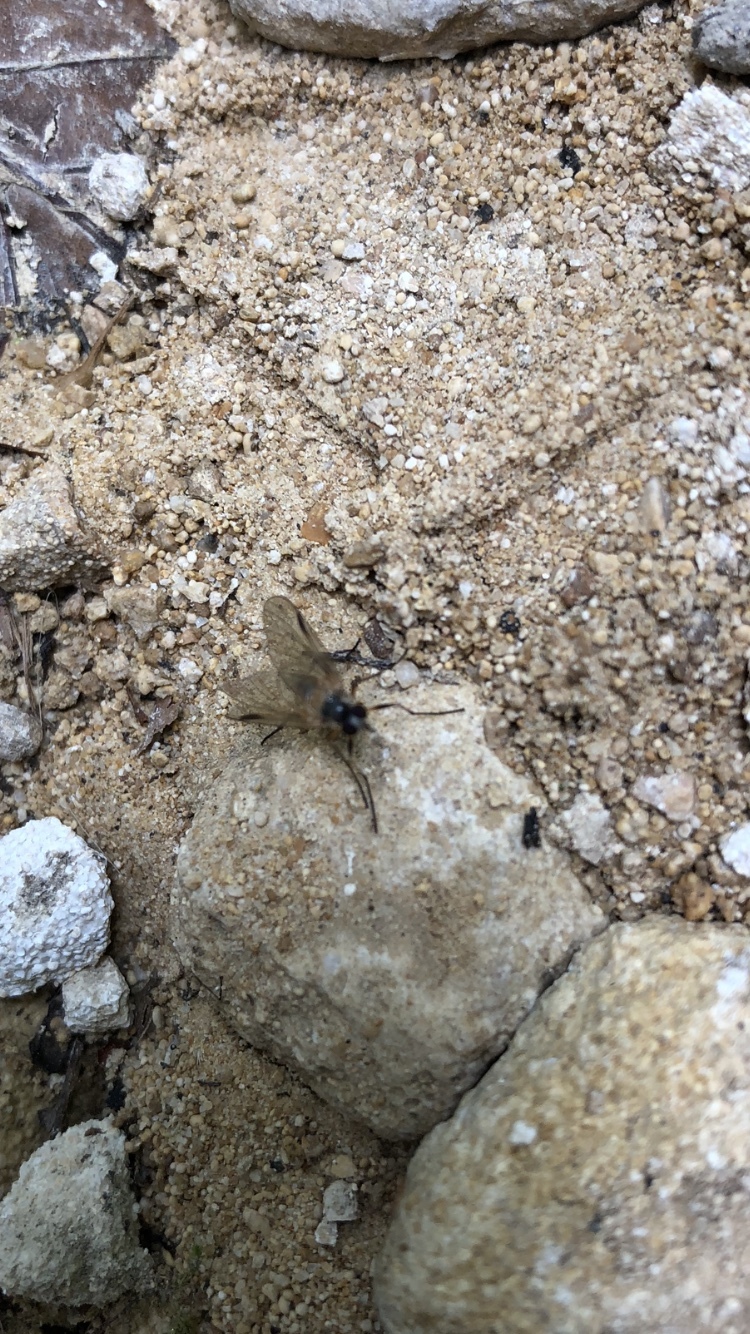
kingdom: Animalia
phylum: Arthropoda
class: Insecta
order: Diptera
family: Rhagionidae
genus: Rhagio
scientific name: Rhagio lineola
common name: Small fleck-winged snipefly
